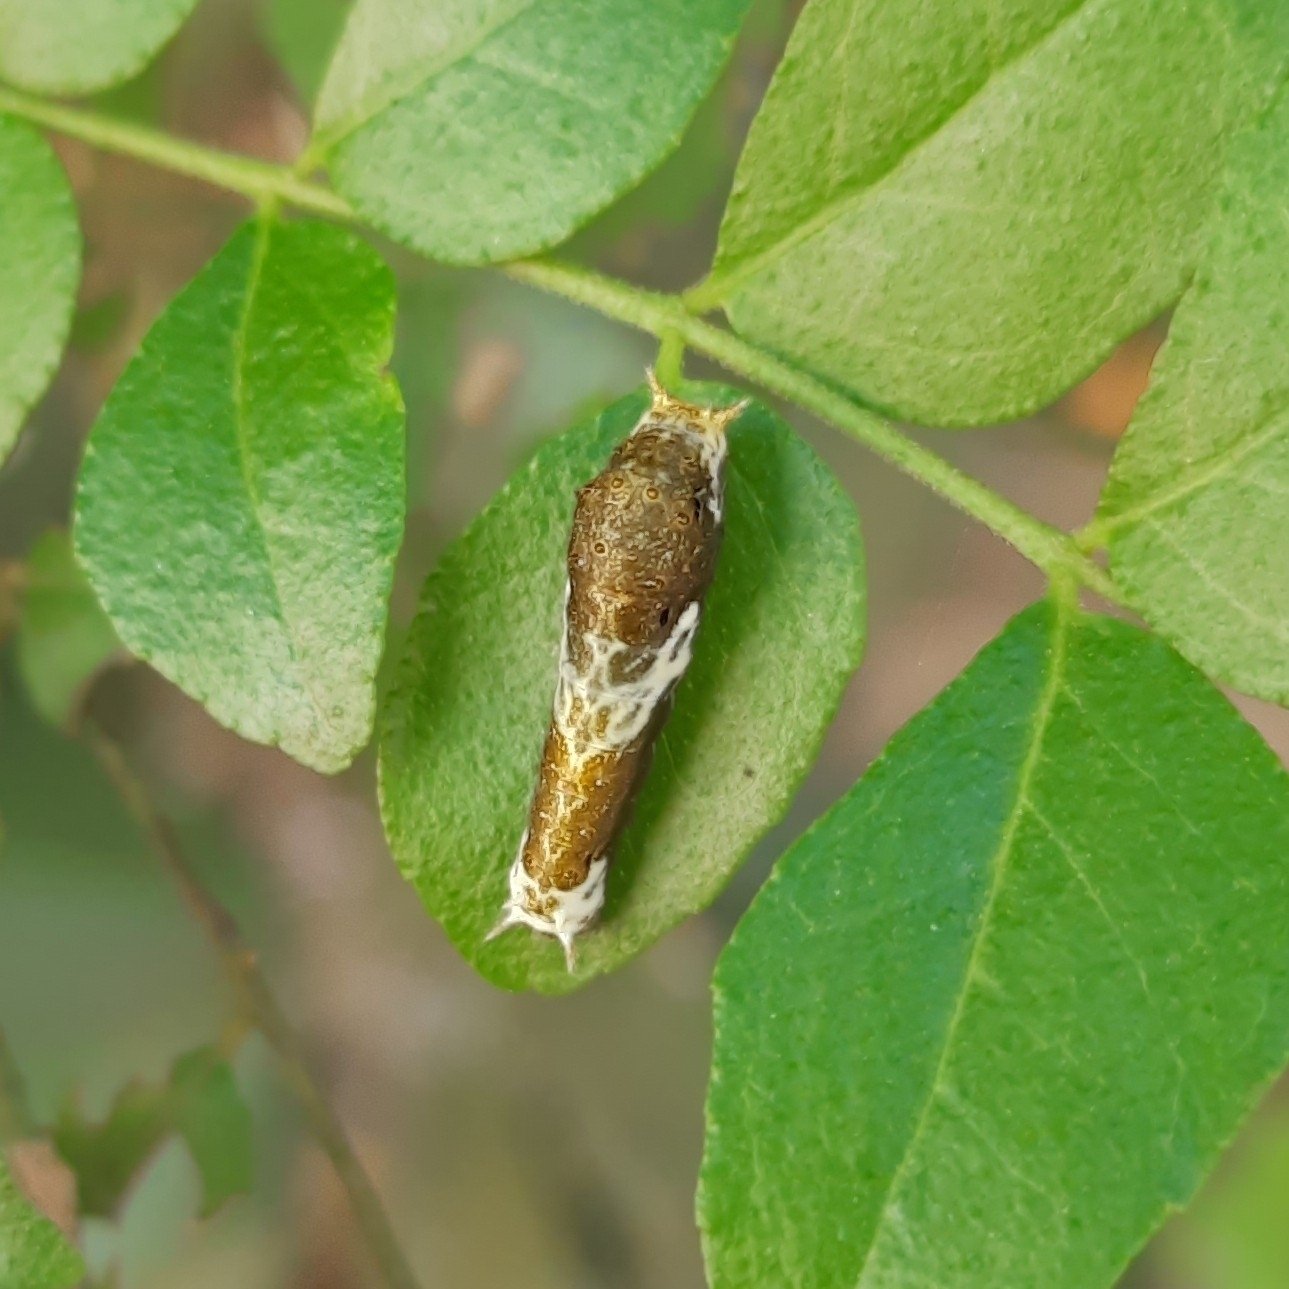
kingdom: Animalia
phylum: Arthropoda
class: Insecta
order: Lepidoptera
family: Papilionidae
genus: Papilio
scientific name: Papilio polytes
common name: Common mormon
